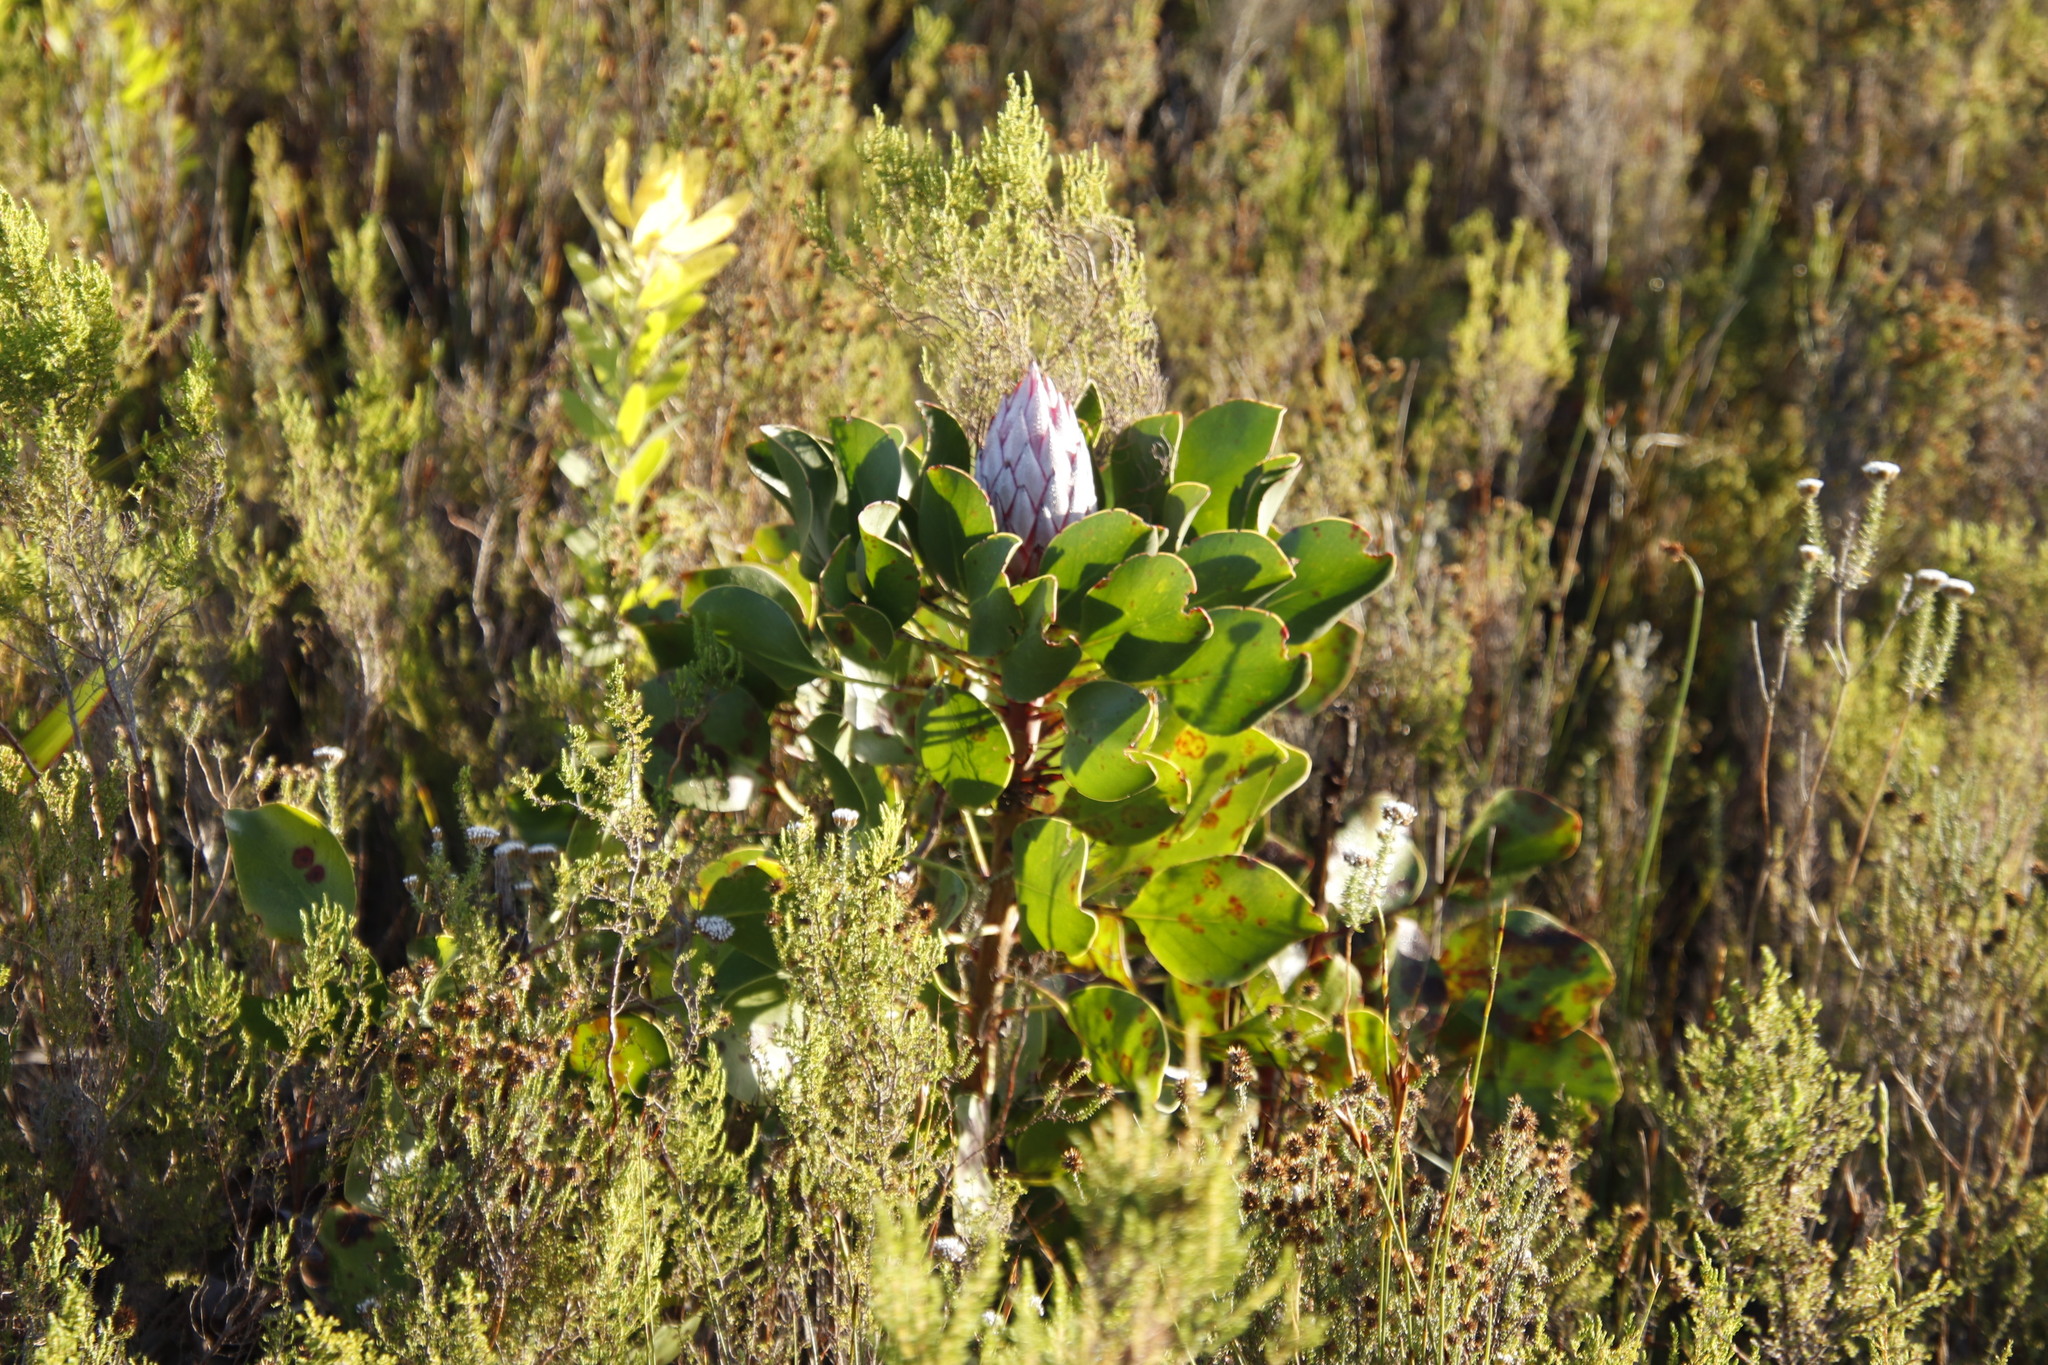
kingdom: Plantae
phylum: Tracheophyta
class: Magnoliopsida
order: Proteales
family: Proteaceae
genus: Protea
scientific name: Protea cynaroides
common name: King protea
